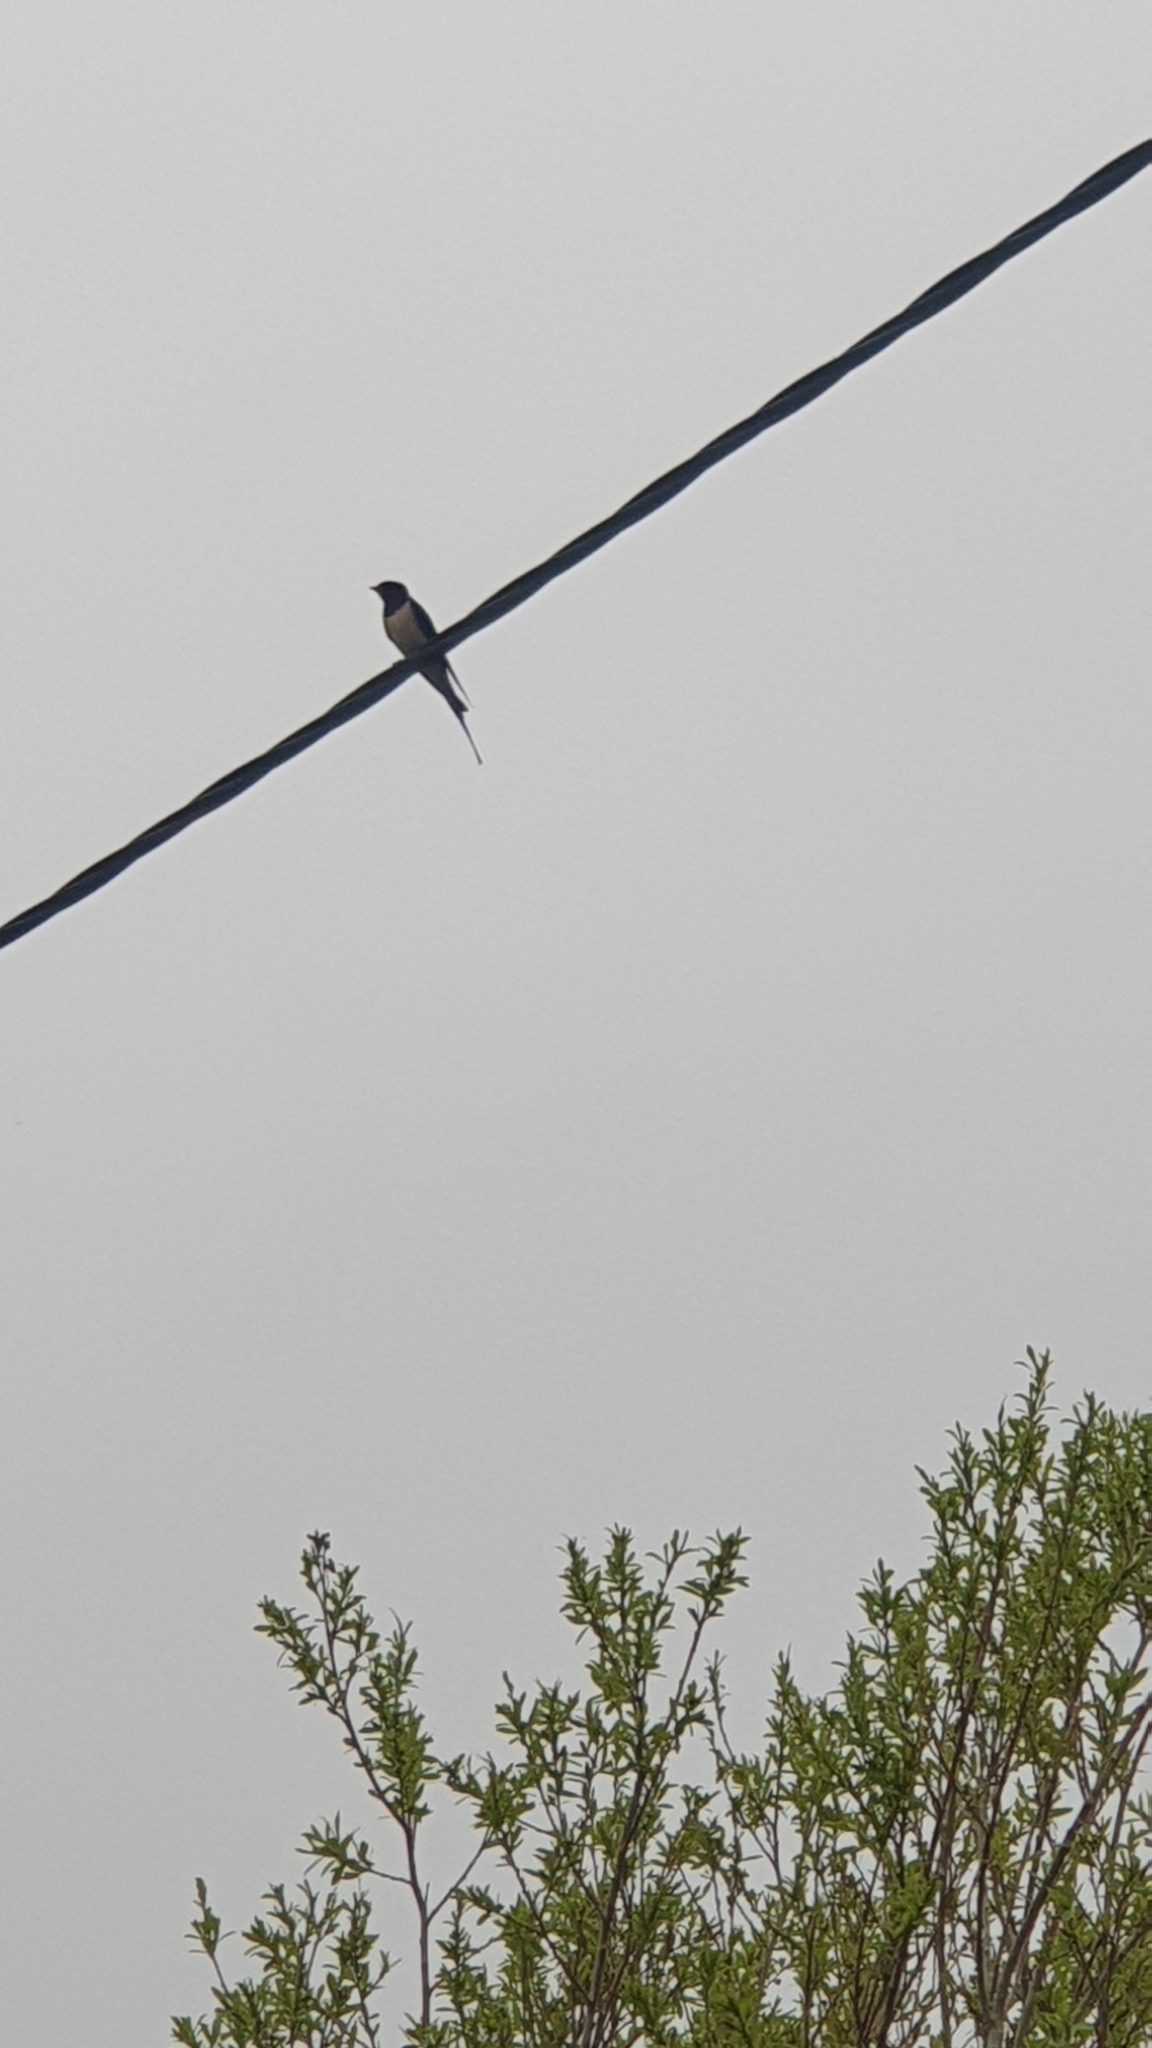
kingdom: Animalia
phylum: Chordata
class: Aves
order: Passeriformes
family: Hirundinidae
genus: Hirundo
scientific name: Hirundo rustica
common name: Barn swallow
